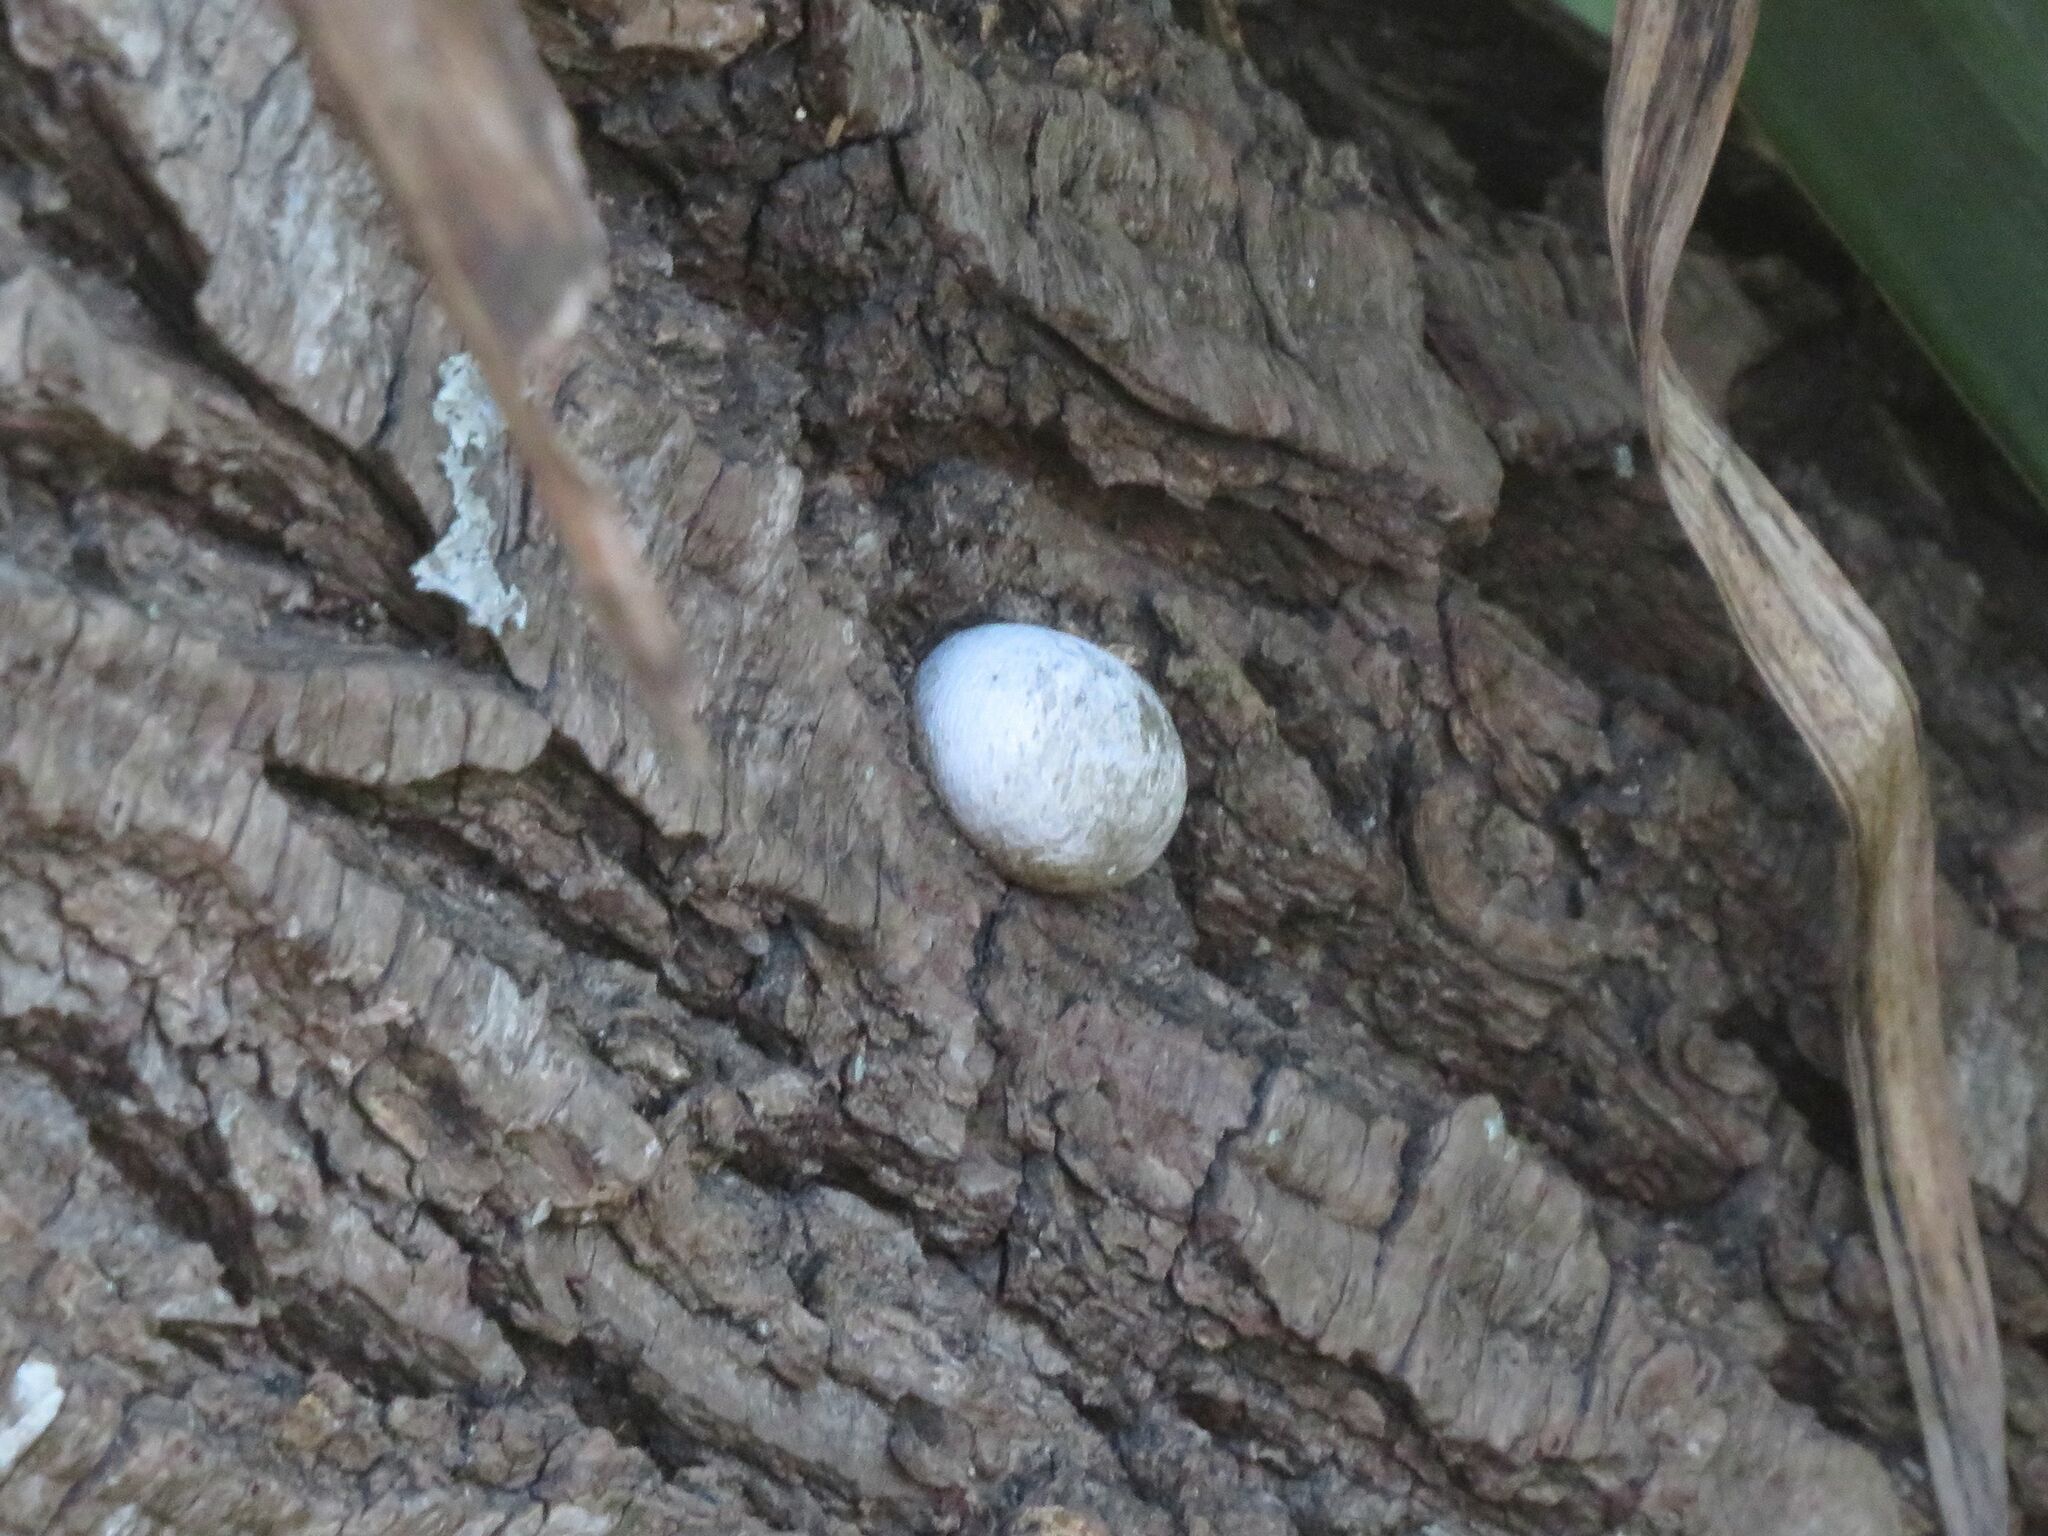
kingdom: Animalia
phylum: Arthropoda
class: Insecta
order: Lepidoptera
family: Limacodidae
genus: Acharia
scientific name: Acharia
